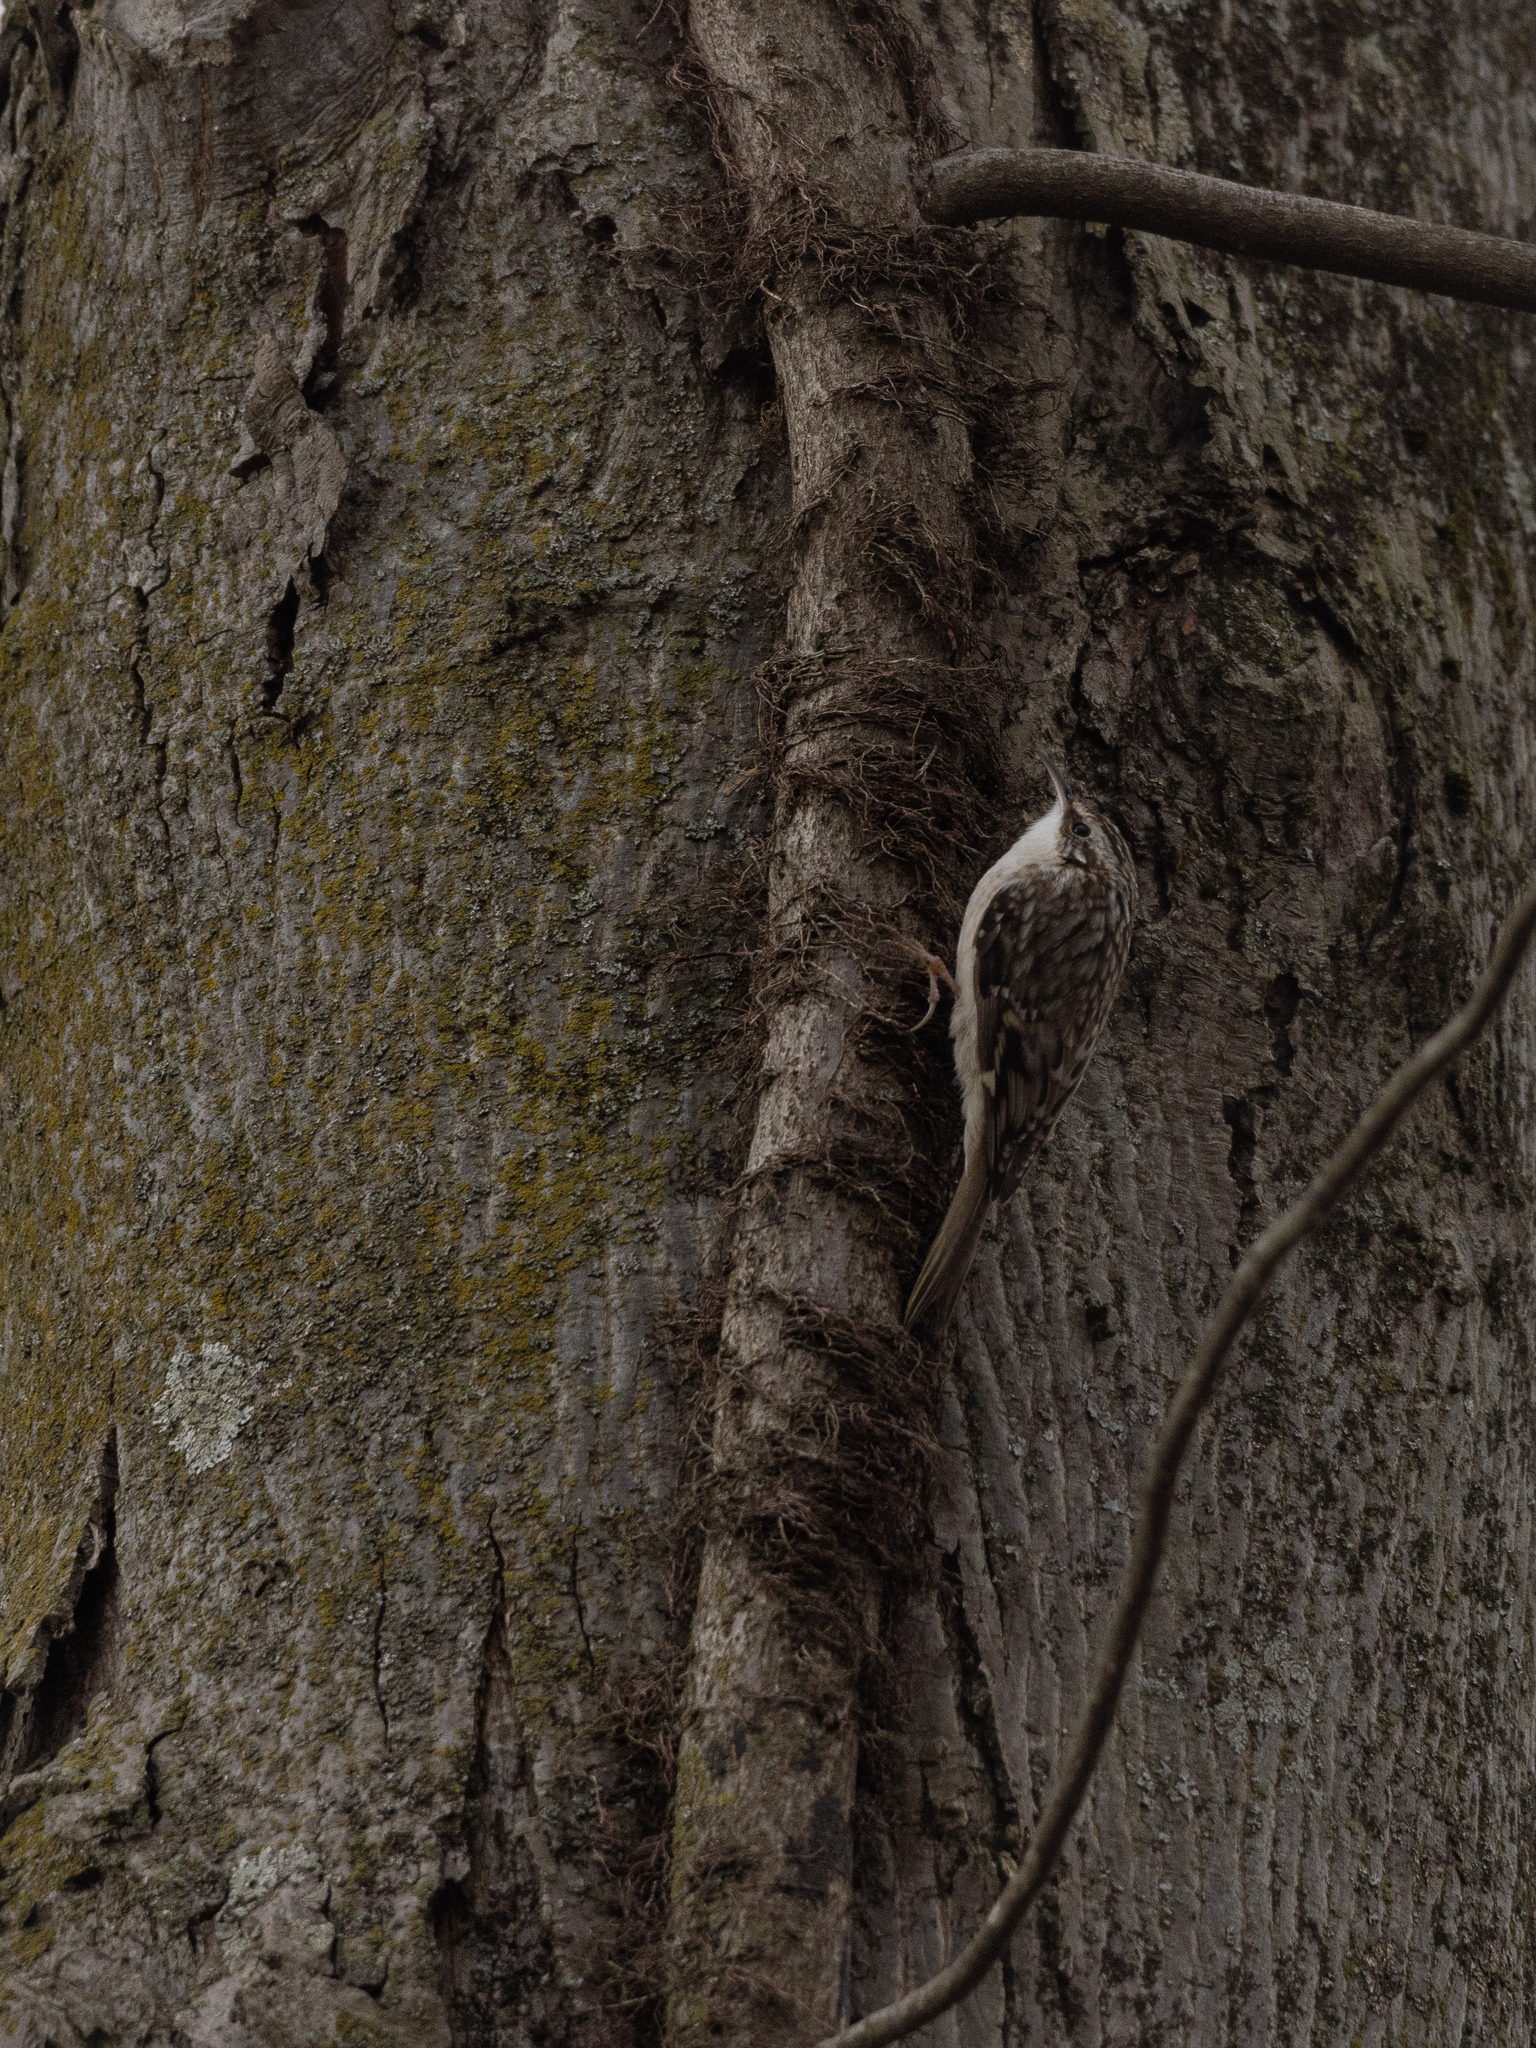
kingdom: Animalia
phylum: Chordata
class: Aves
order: Passeriformes
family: Certhiidae
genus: Certhia
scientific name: Certhia americana
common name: Brown creeper
